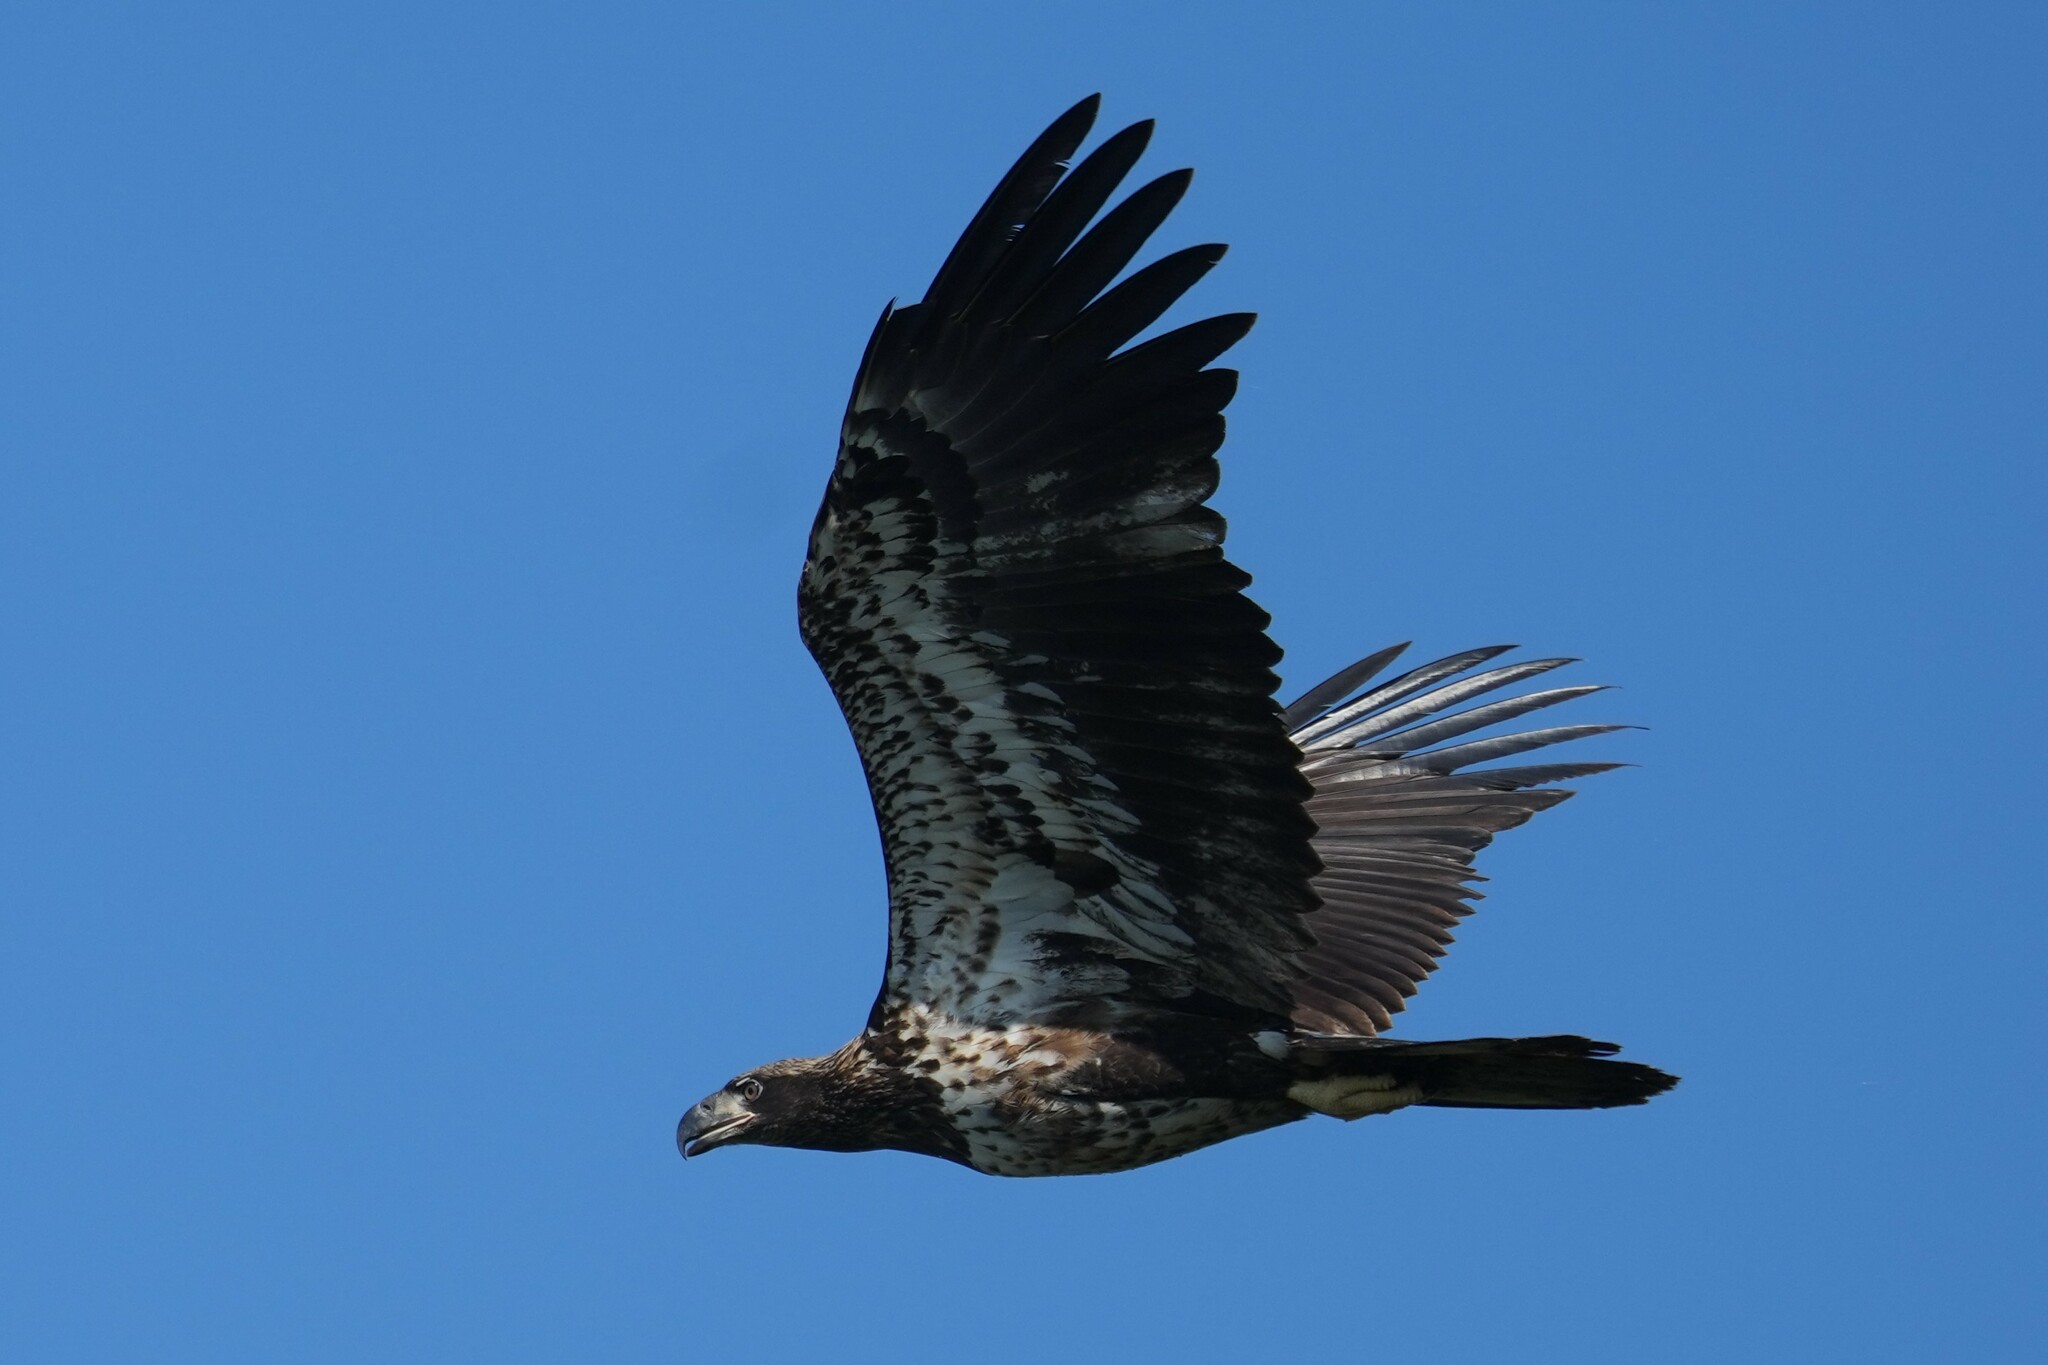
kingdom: Animalia
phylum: Chordata
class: Aves
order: Accipitriformes
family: Accipitridae
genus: Haliaeetus
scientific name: Haliaeetus leucocephalus
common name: Bald eagle
